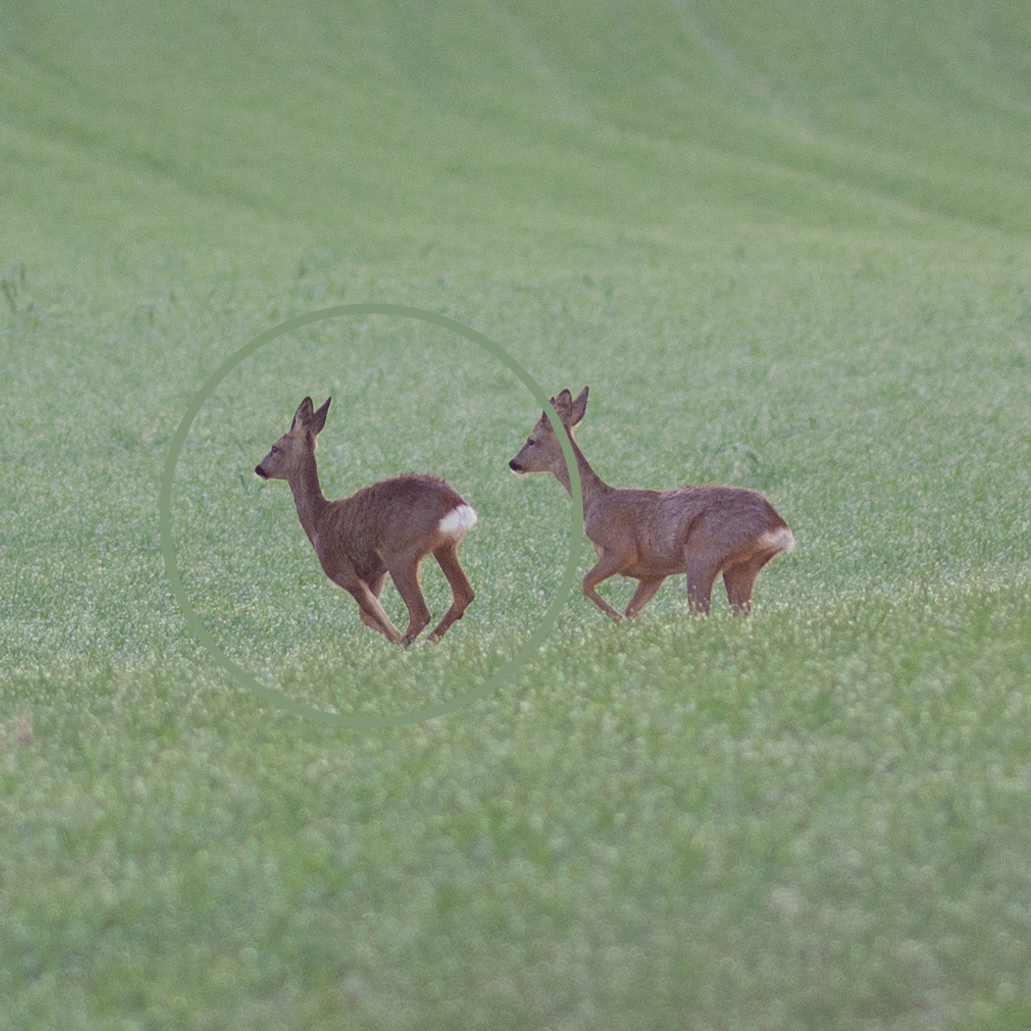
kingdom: Animalia
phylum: Chordata
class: Mammalia
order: Artiodactyla
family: Cervidae
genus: Capreolus
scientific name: Capreolus capreolus
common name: Western roe deer
